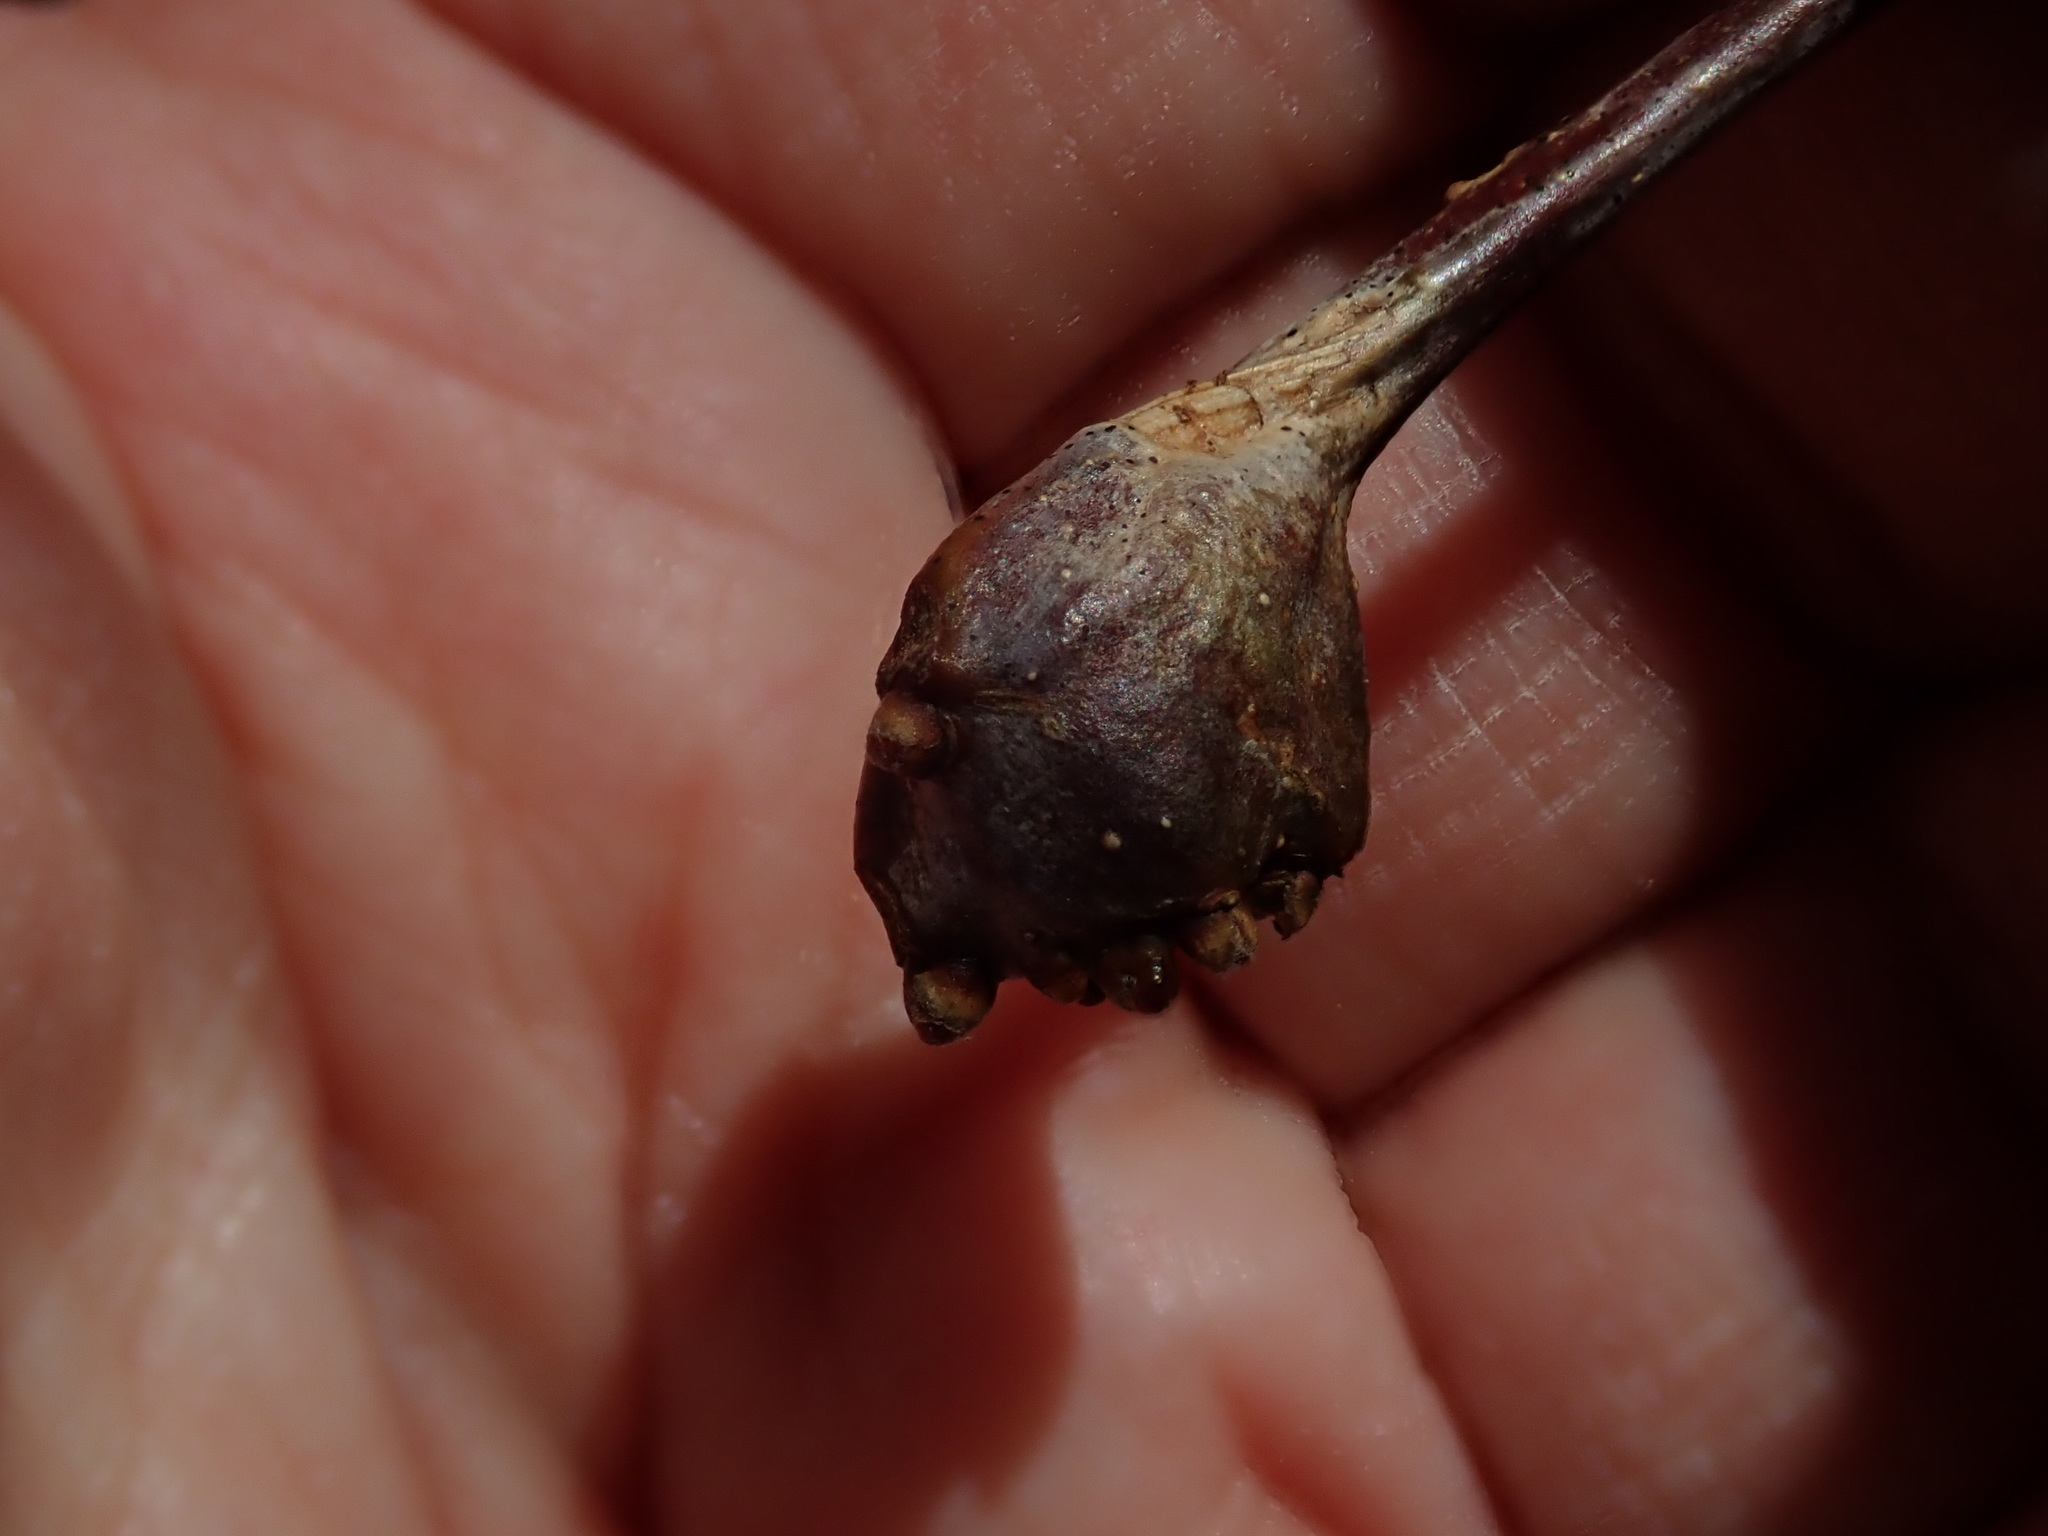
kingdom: Animalia
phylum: Arthropoda
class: Insecta
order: Hymenoptera
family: Cynipidae
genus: Callirhytis
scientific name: Callirhytis clavula
